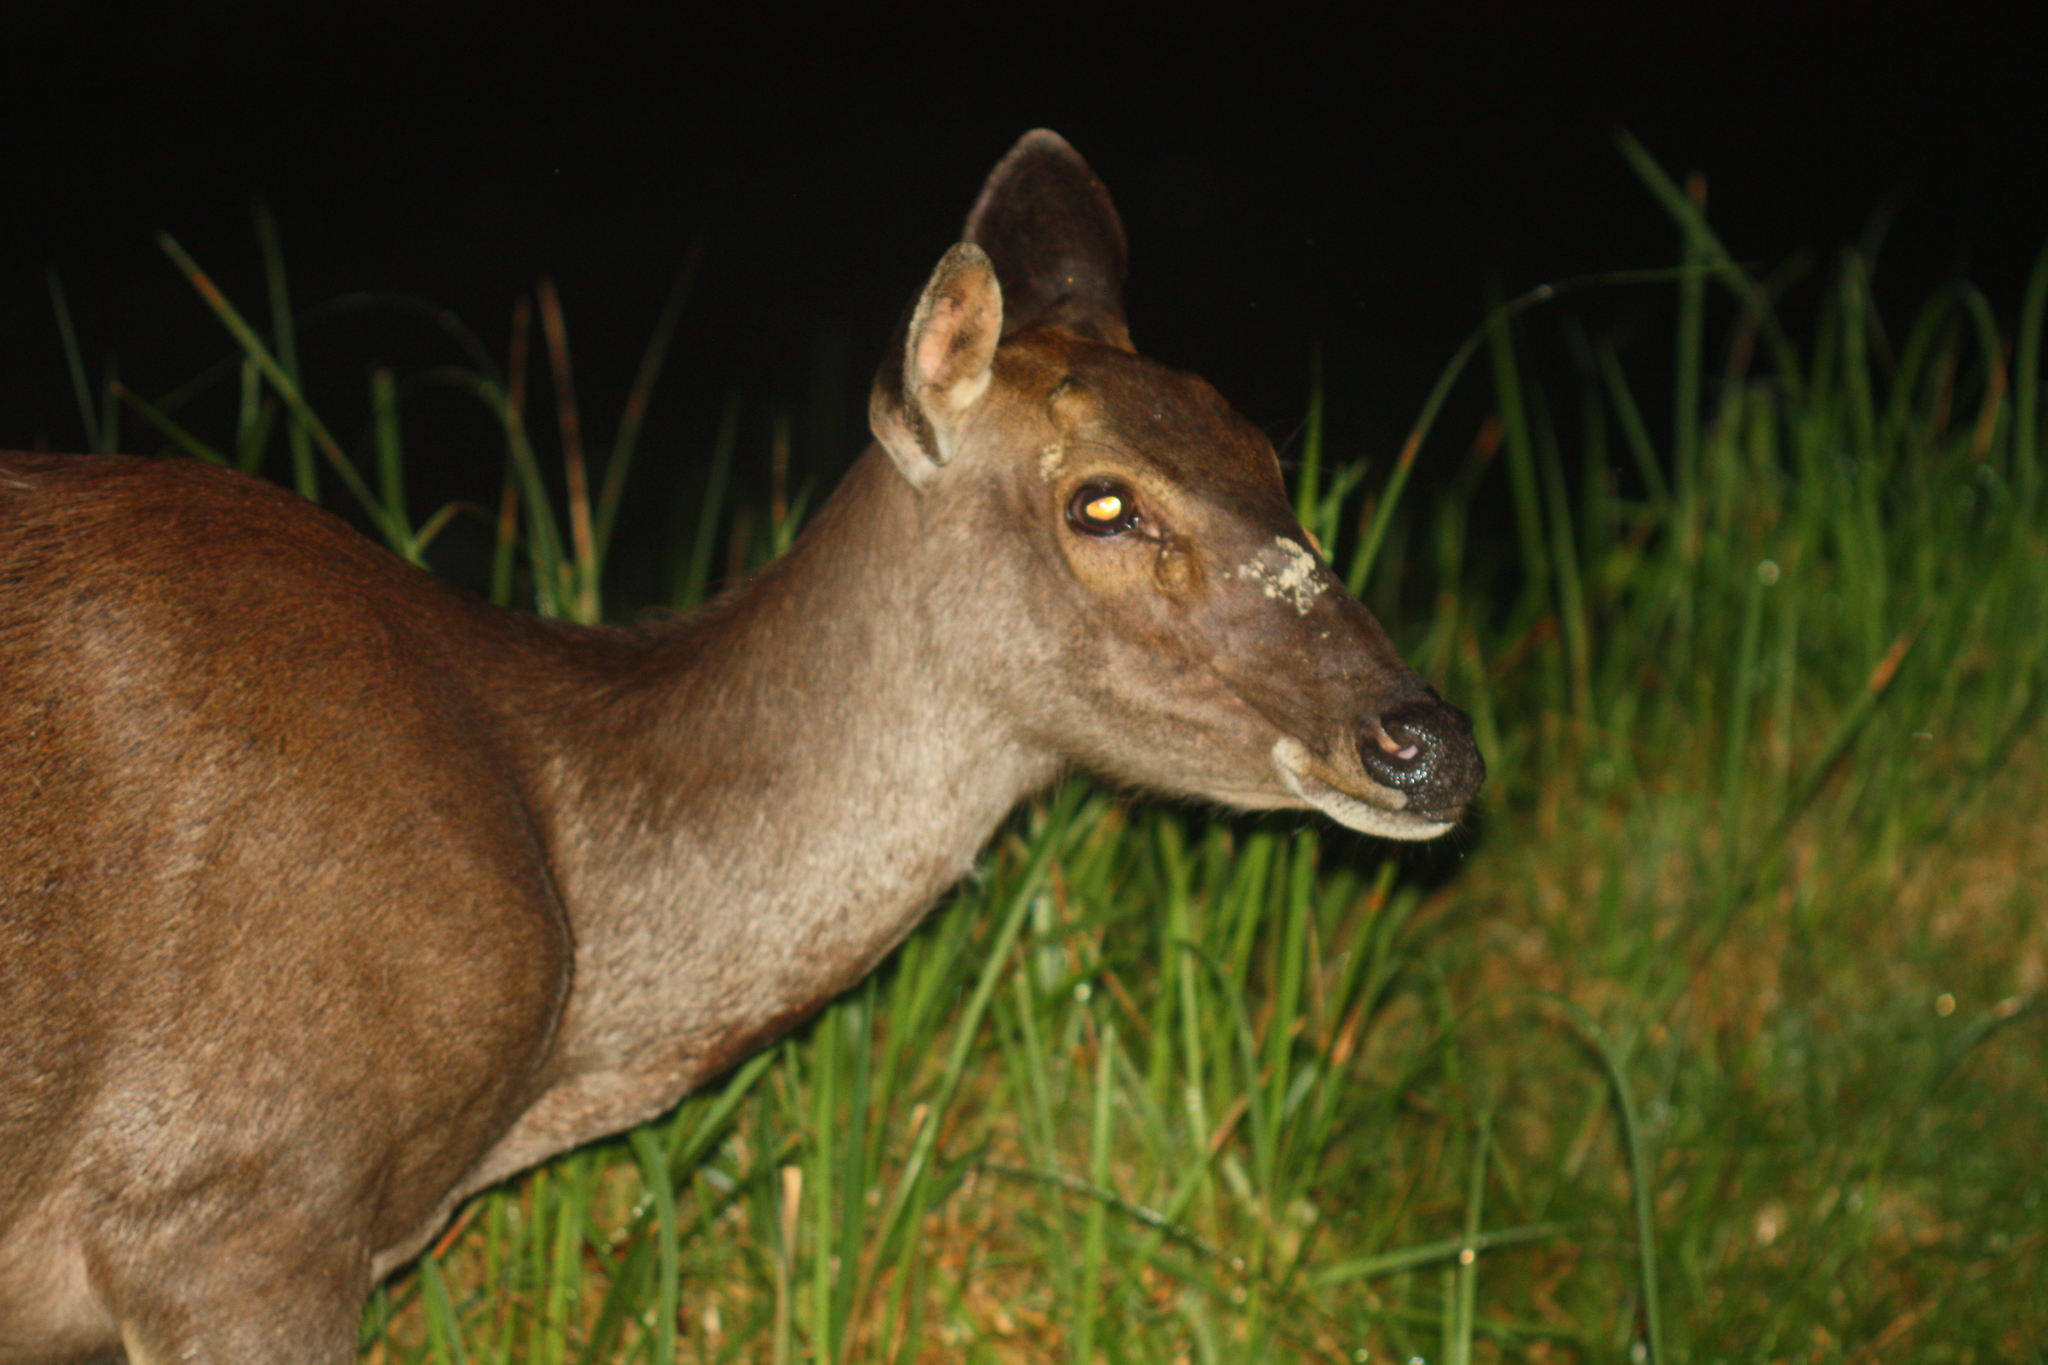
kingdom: Animalia
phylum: Chordata
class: Mammalia
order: Artiodactyla
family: Cervidae
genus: Rusa
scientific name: Rusa unicolor
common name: Sambar
